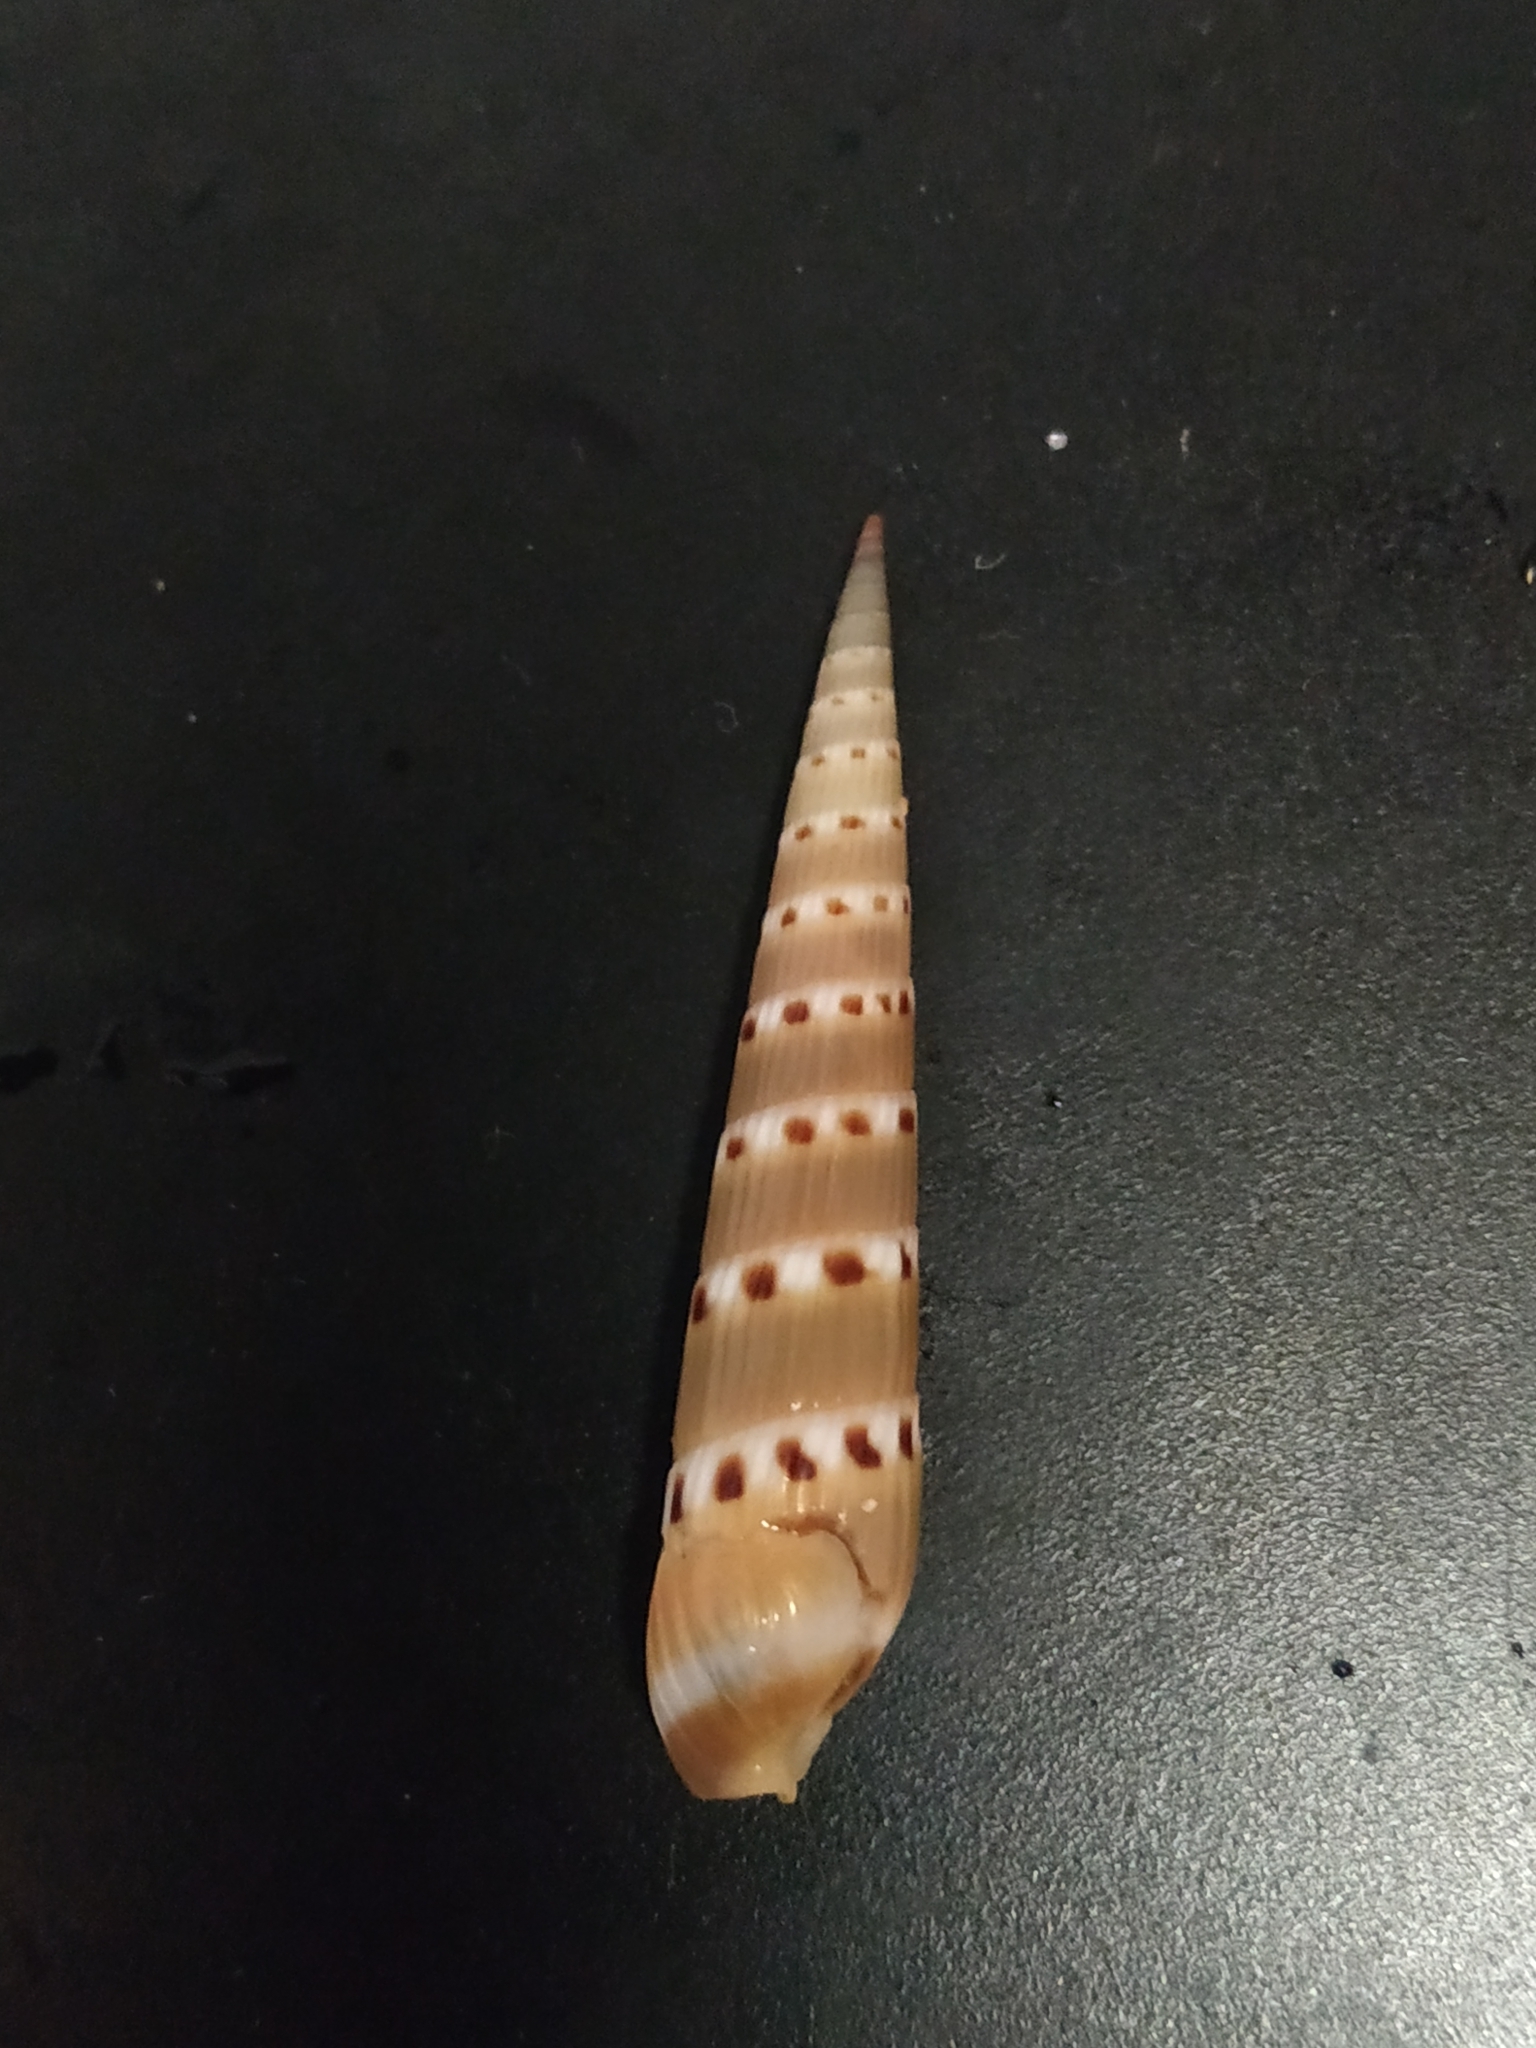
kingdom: Animalia
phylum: Mollusca
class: Gastropoda
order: Neogastropoda
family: Terebridae
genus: Hastula
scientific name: Hastula strigilata
